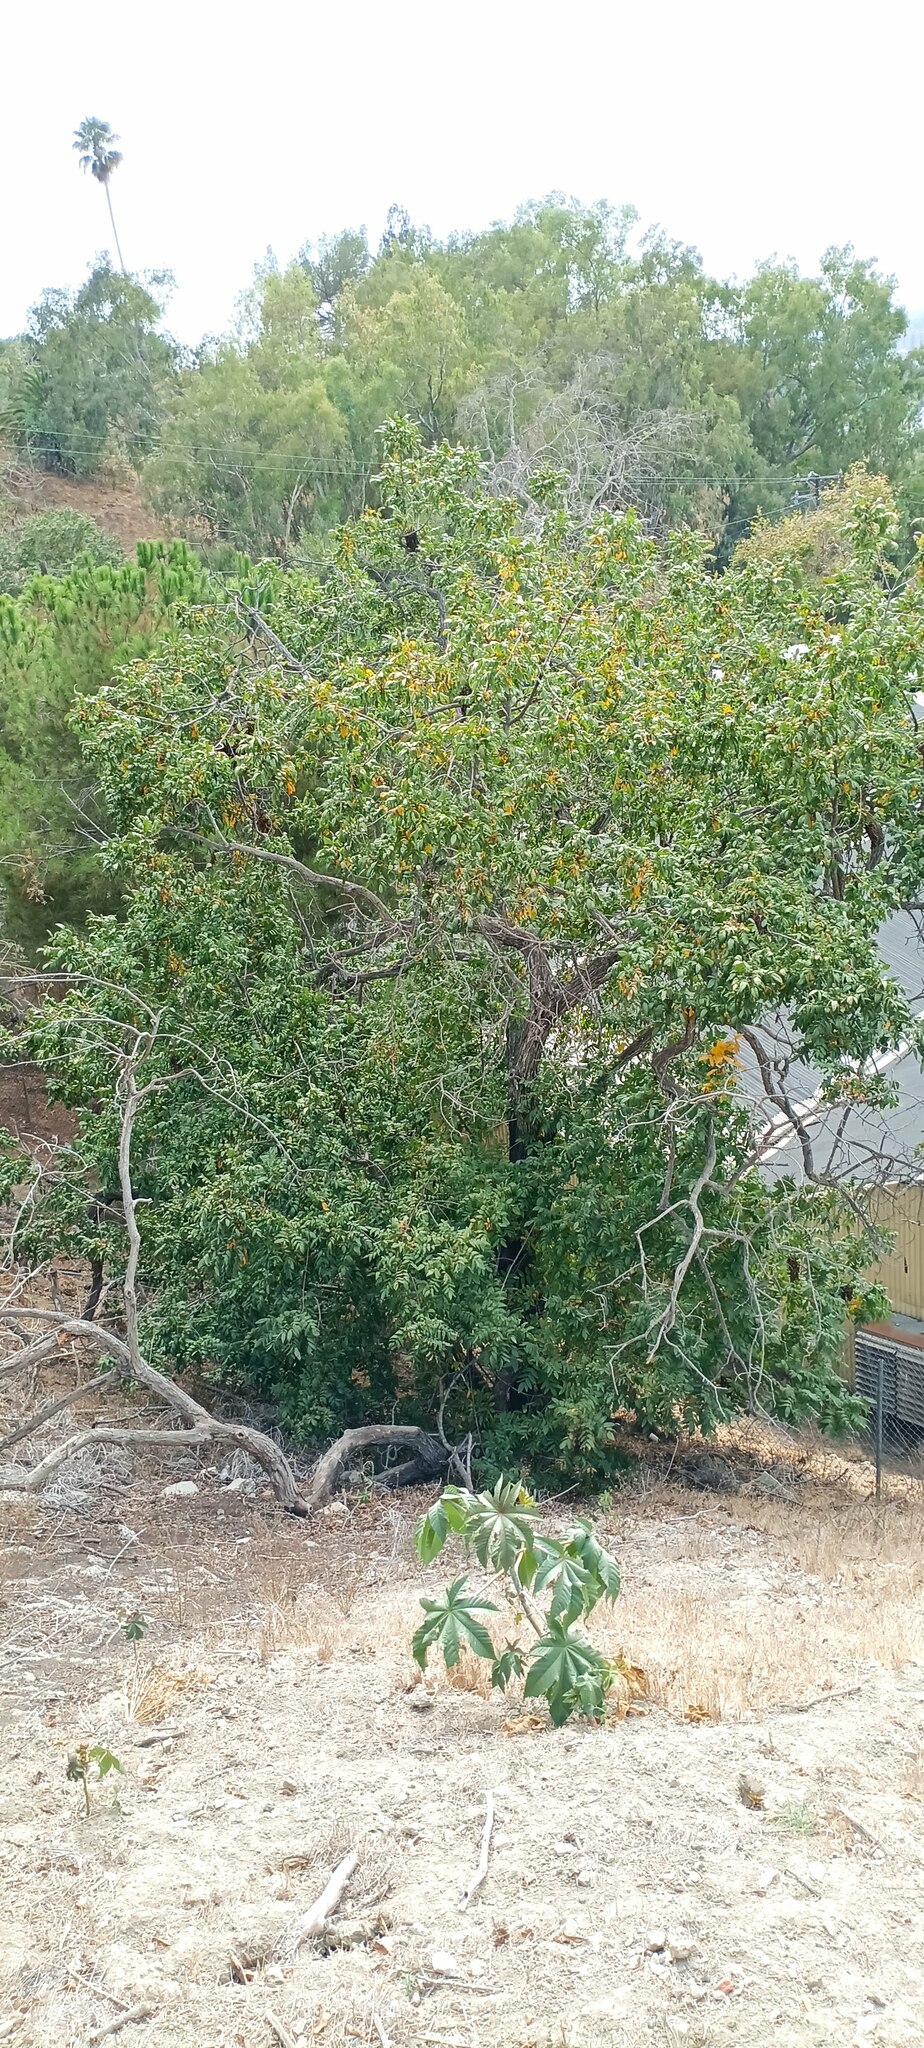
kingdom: Plantae
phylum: Tracheophyta
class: Magnoliopsida
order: Fagales
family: Juglandaceae
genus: Juglans
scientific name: Juglans californica
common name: Southern california black walnut
